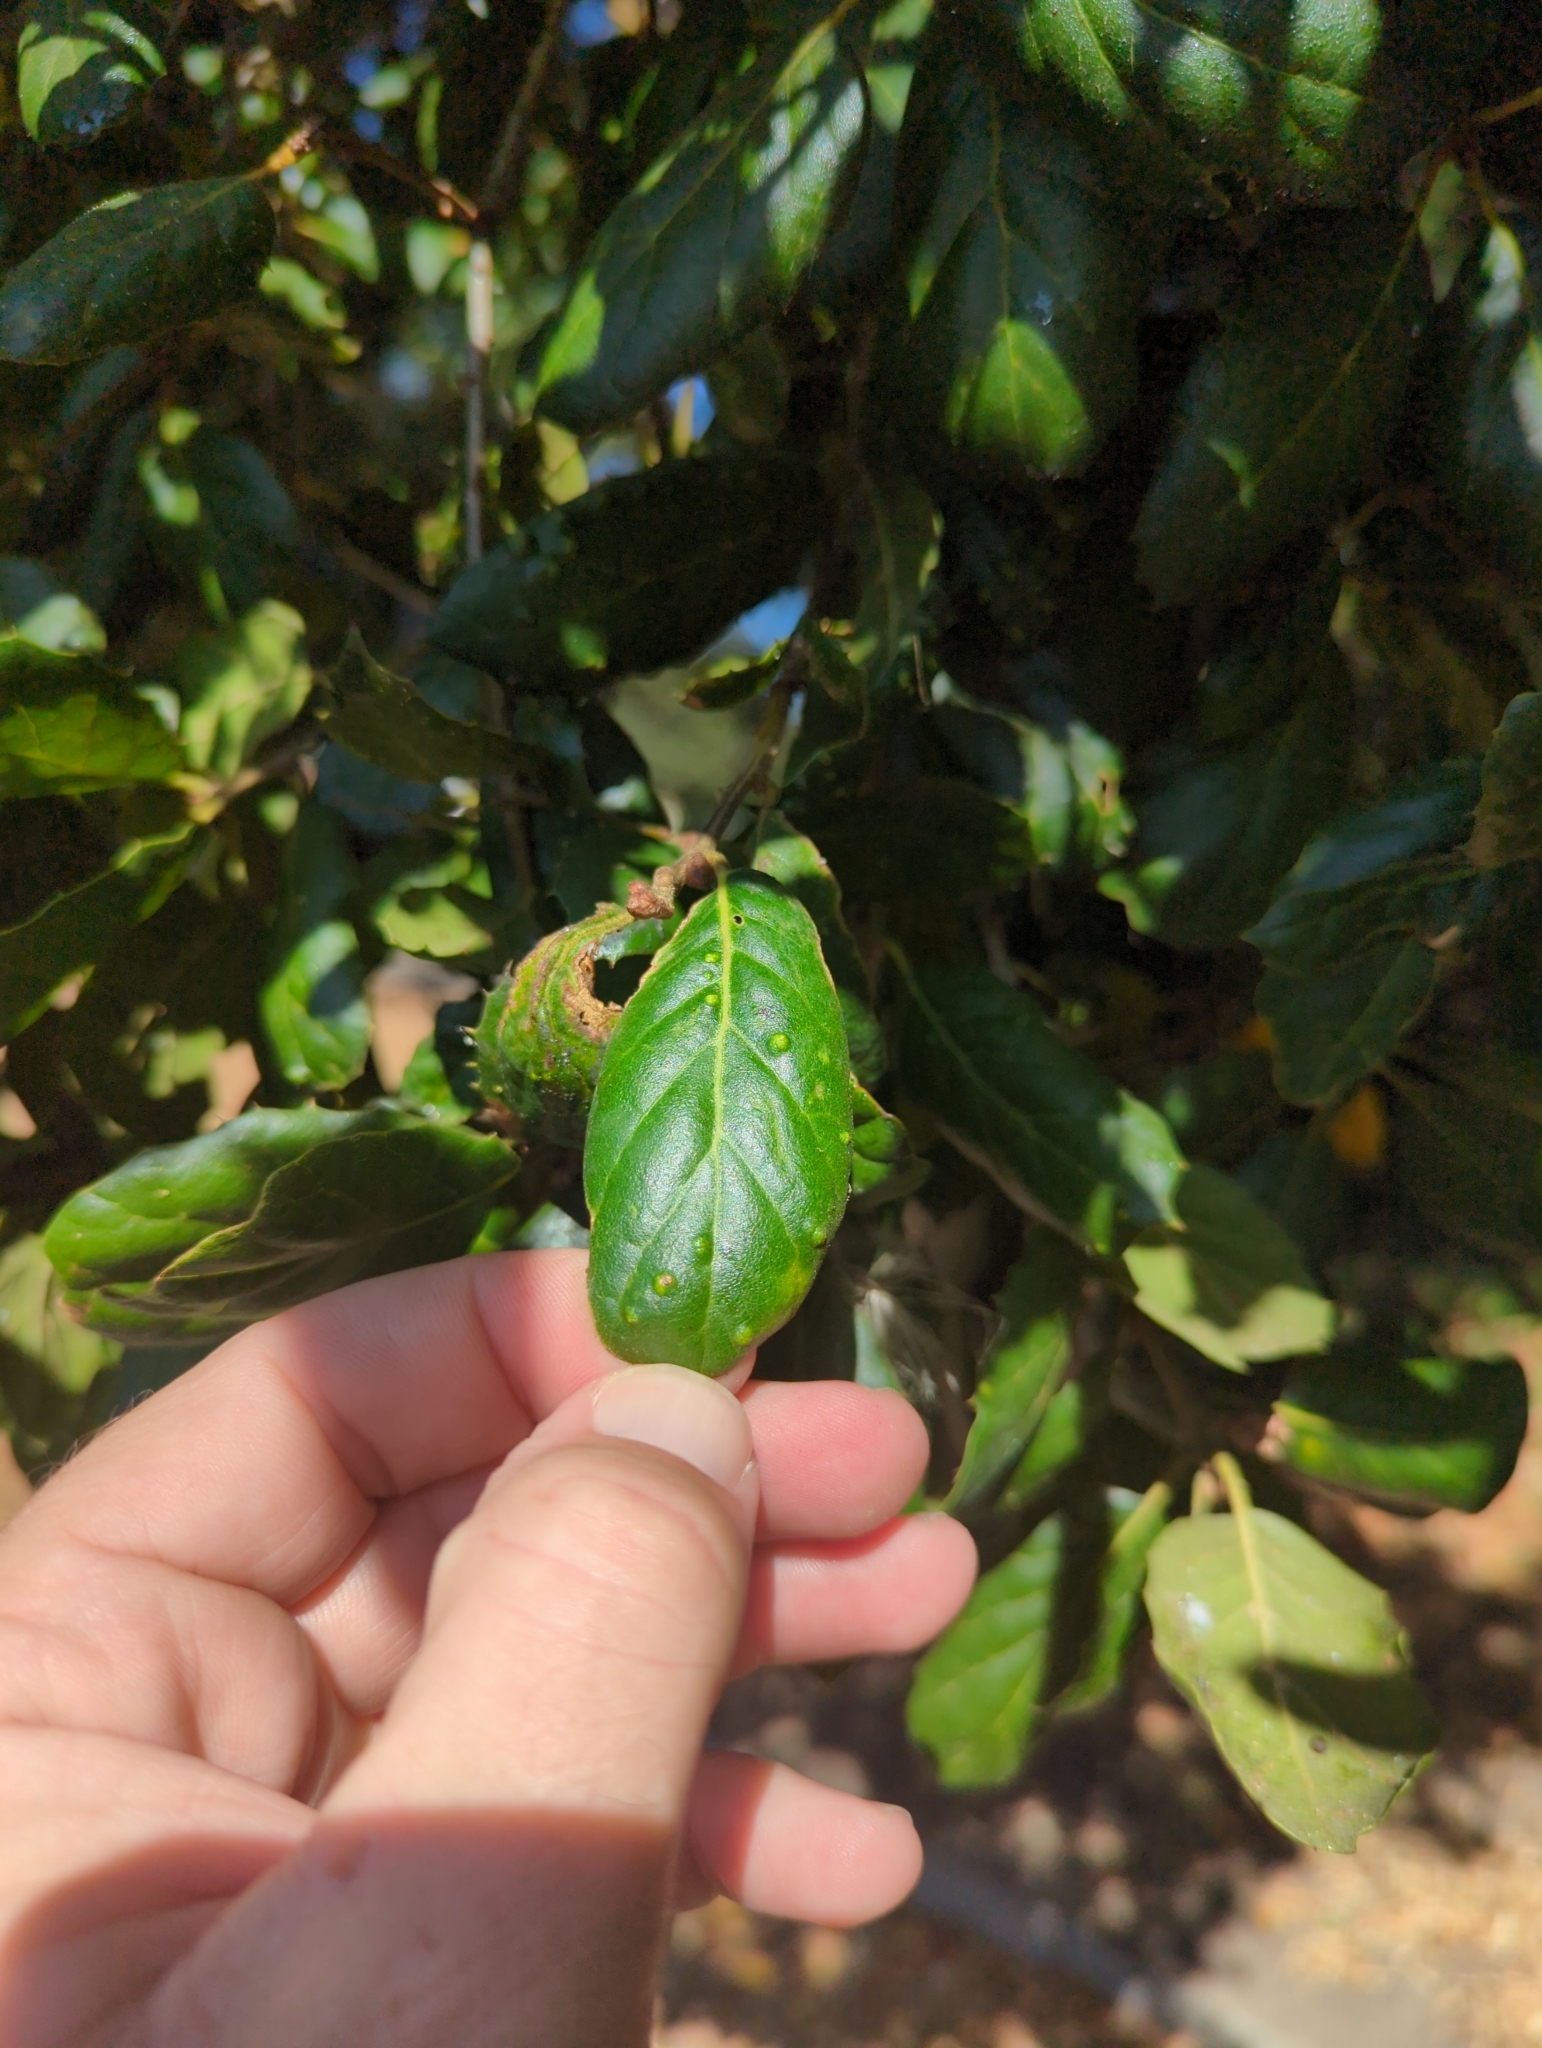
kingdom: Animalia
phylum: Arthropoda
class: Arachnida
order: Trombidiformes
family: Eriophyidae
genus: Aceria
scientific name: Aceria
